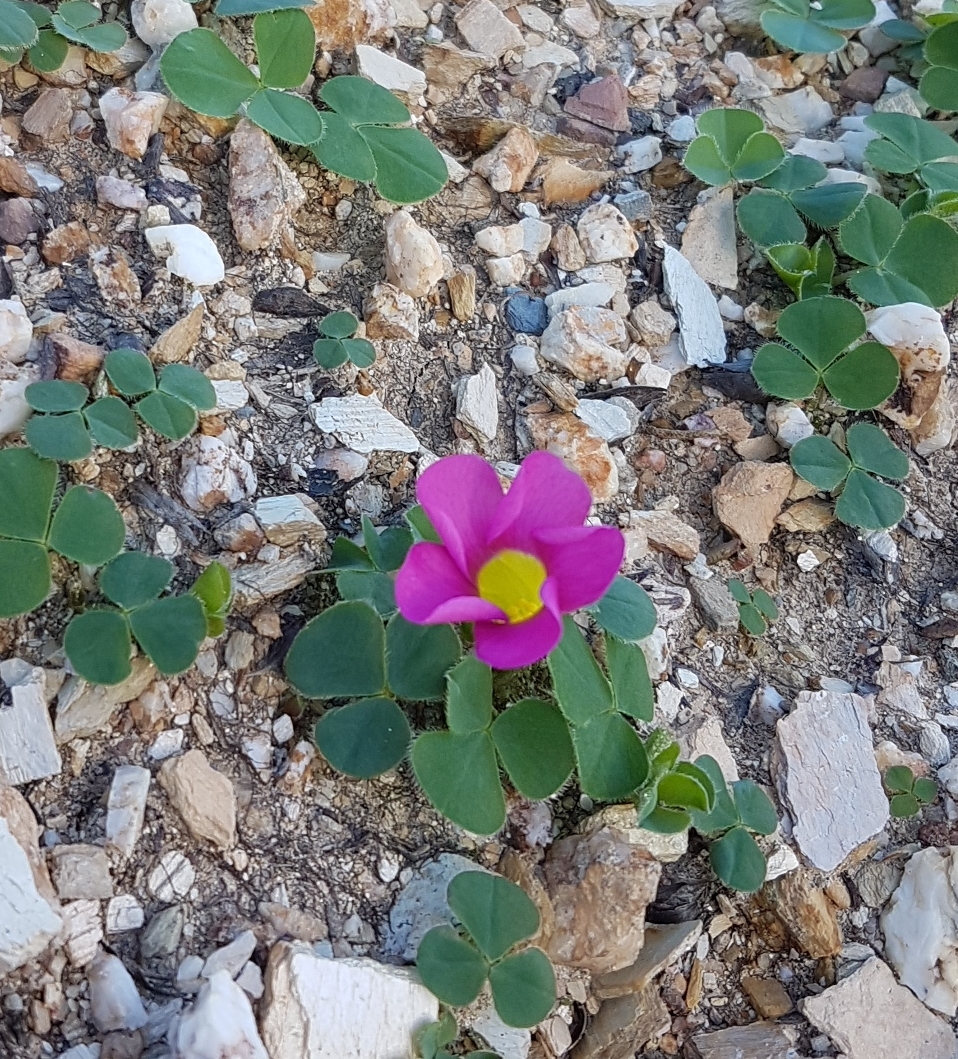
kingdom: Plantae
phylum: Tracheophyta
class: Magnoliopsida
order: Oxalidales
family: Oxalidaceae
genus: Oxalis
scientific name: Oxalis purpurea
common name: Purple woodsorrel
